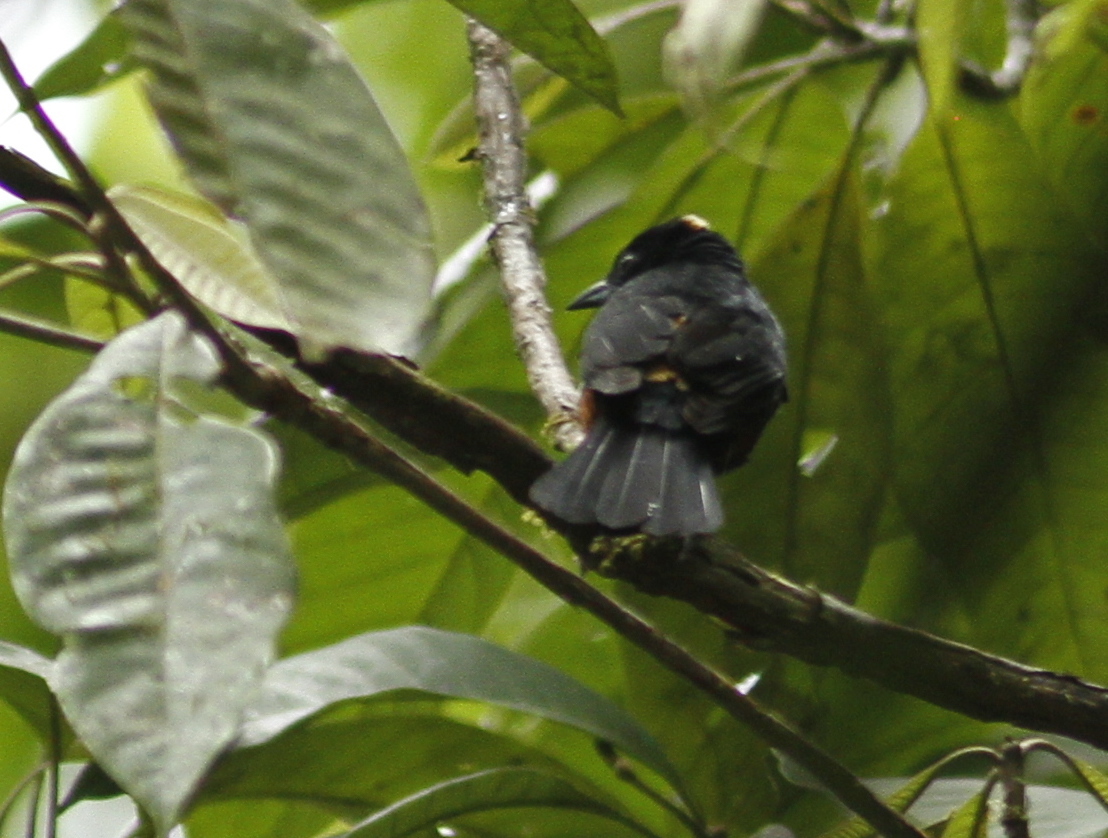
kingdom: Animalia
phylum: Chordata
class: Aves
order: Passeriformes
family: Thraupidae
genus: Tachyphonus
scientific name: Tachyphonus surinamus
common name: Fulvous-crested tanager
